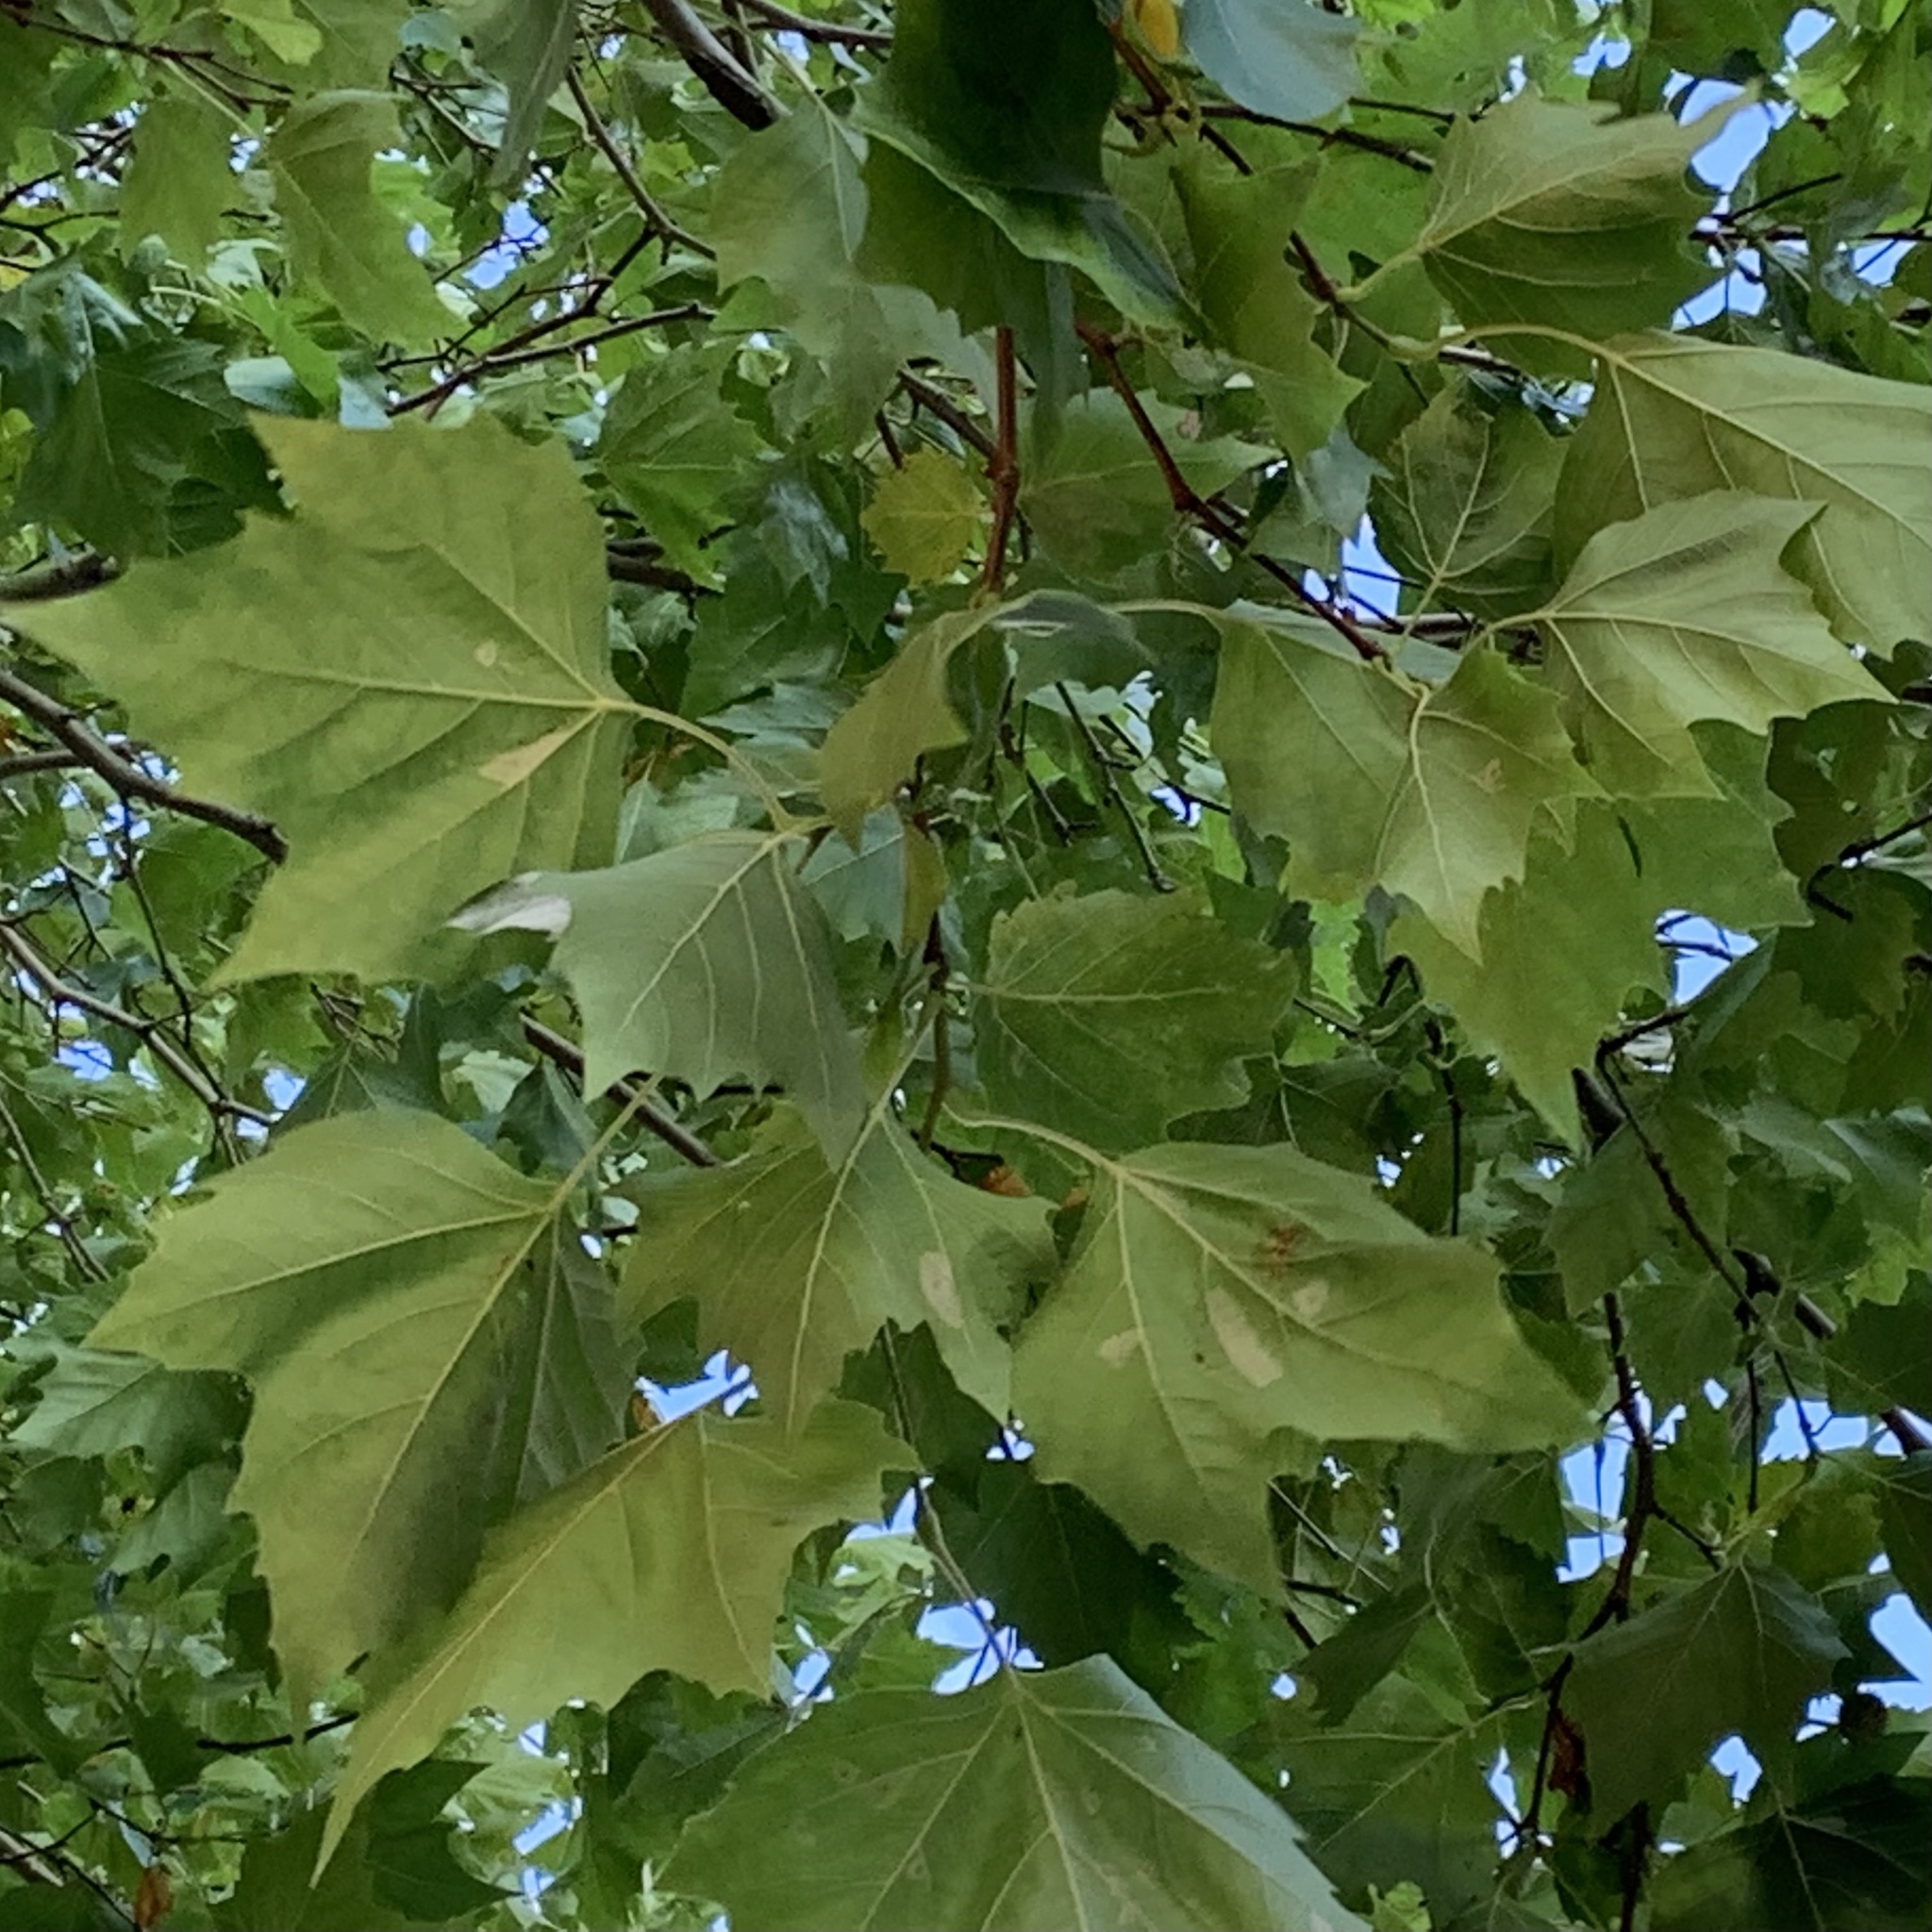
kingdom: Animalia
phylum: Arthropoda
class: Insecta
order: Lepidoptera
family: Gracillariidae
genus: Phyllonorycter
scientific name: Phyllonorycter platani
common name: London midget
